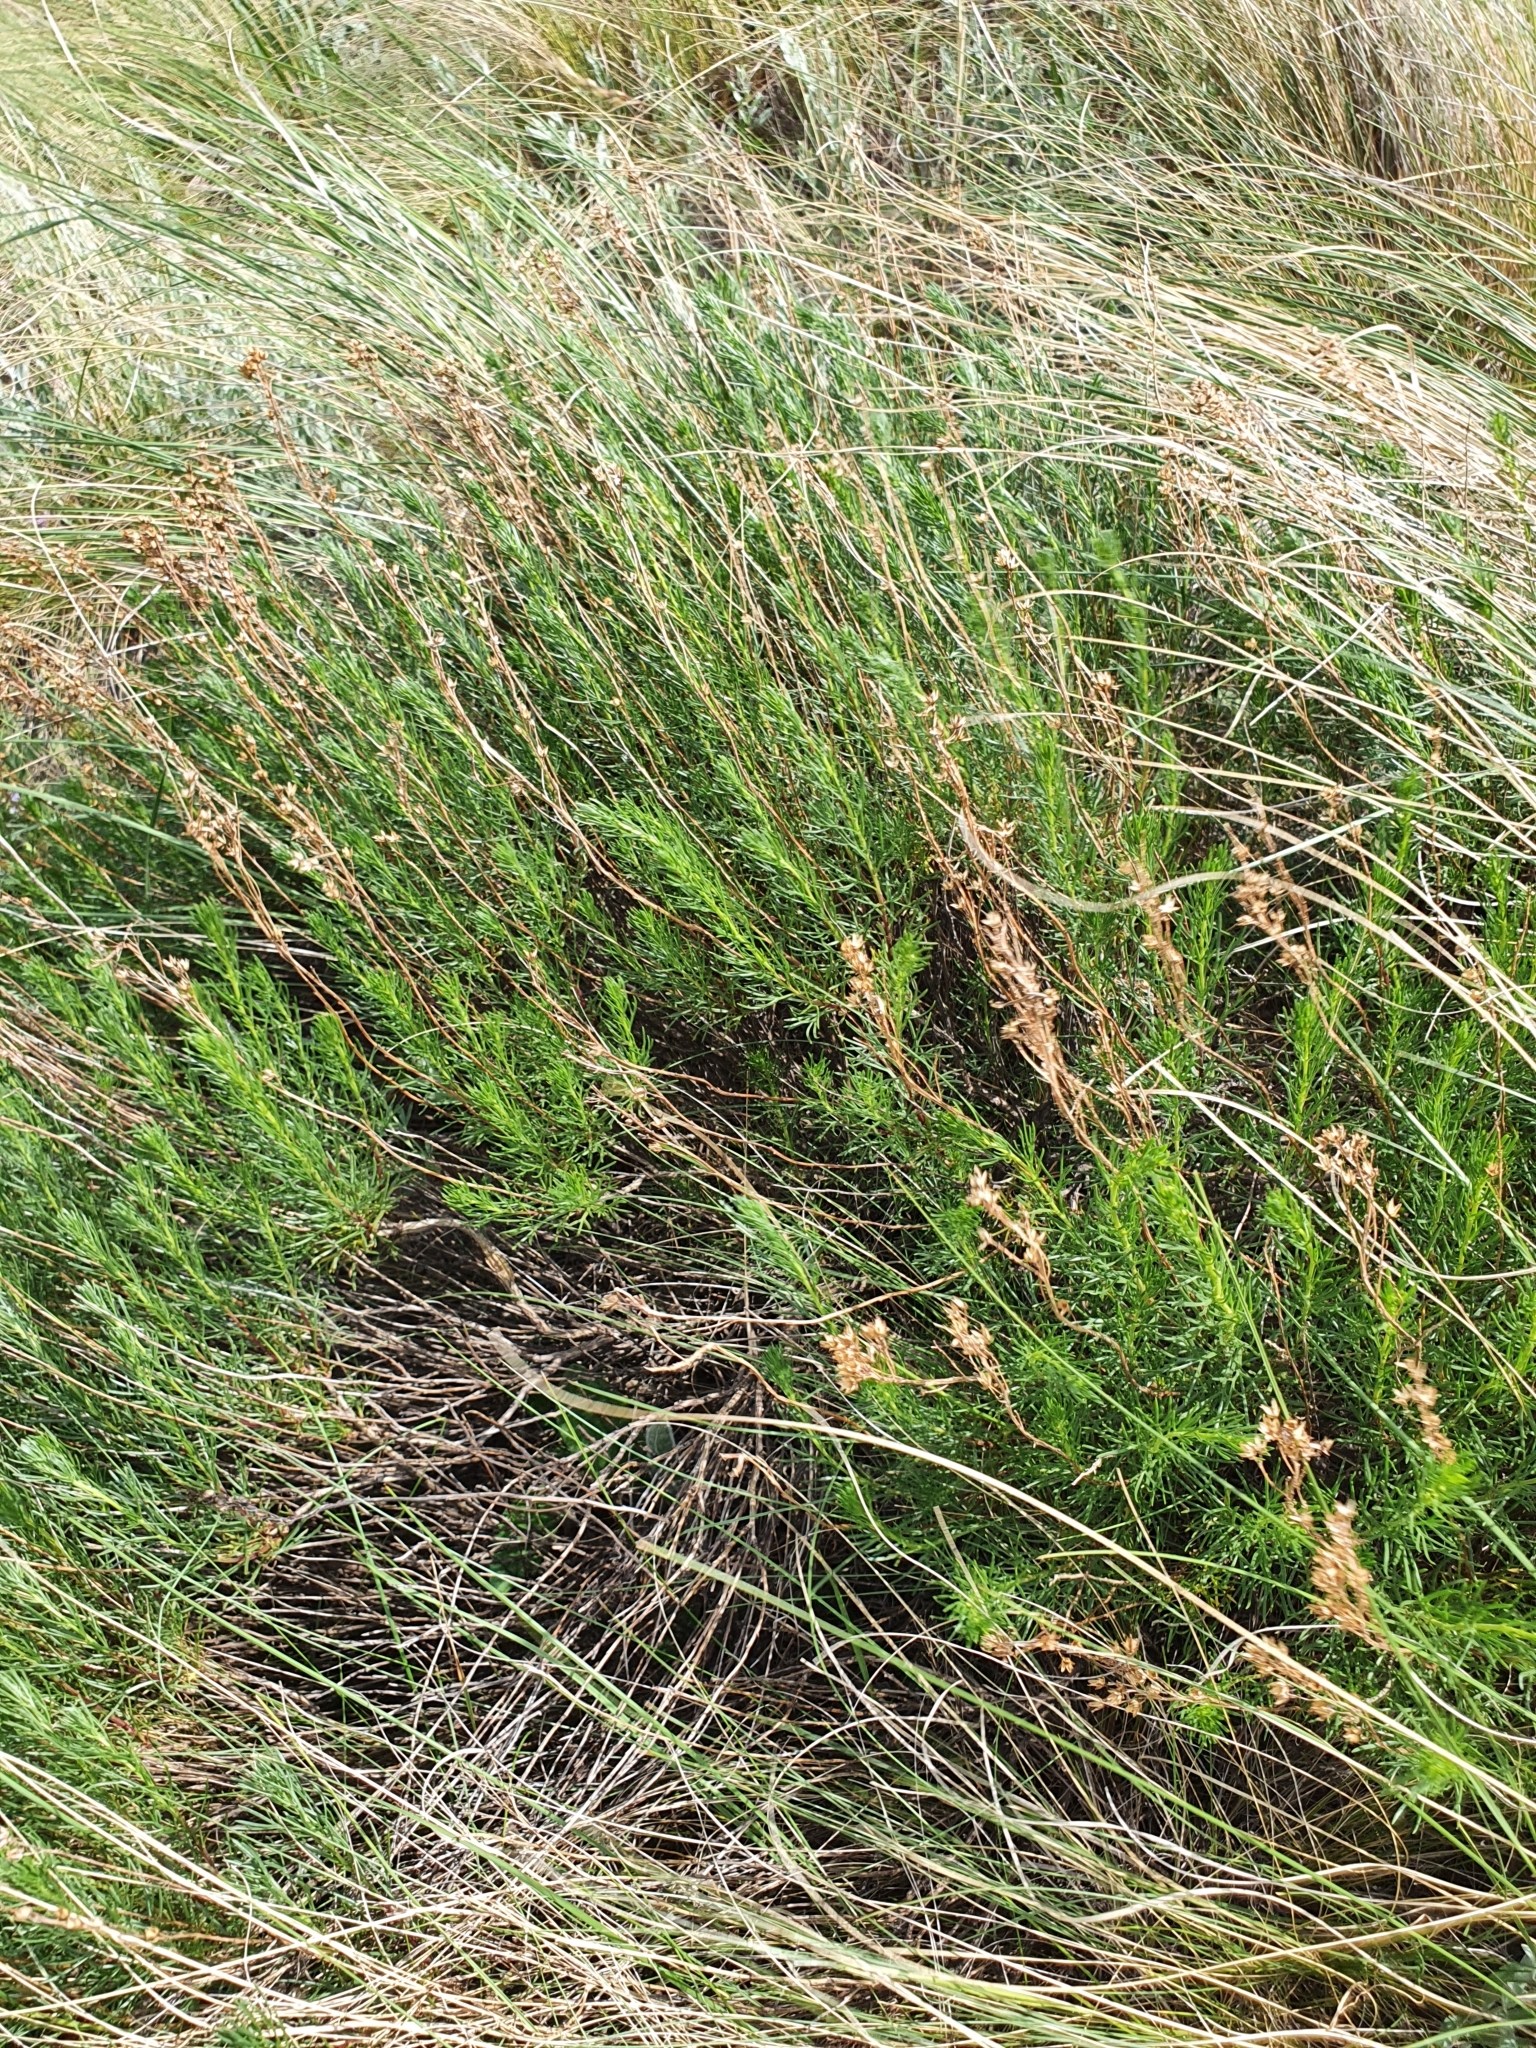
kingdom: Plantae
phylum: Tracheophyta
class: Magnoliopsida
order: Asterales
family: Asteraceae
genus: Artemisia
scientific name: Artemisia salsoloides
